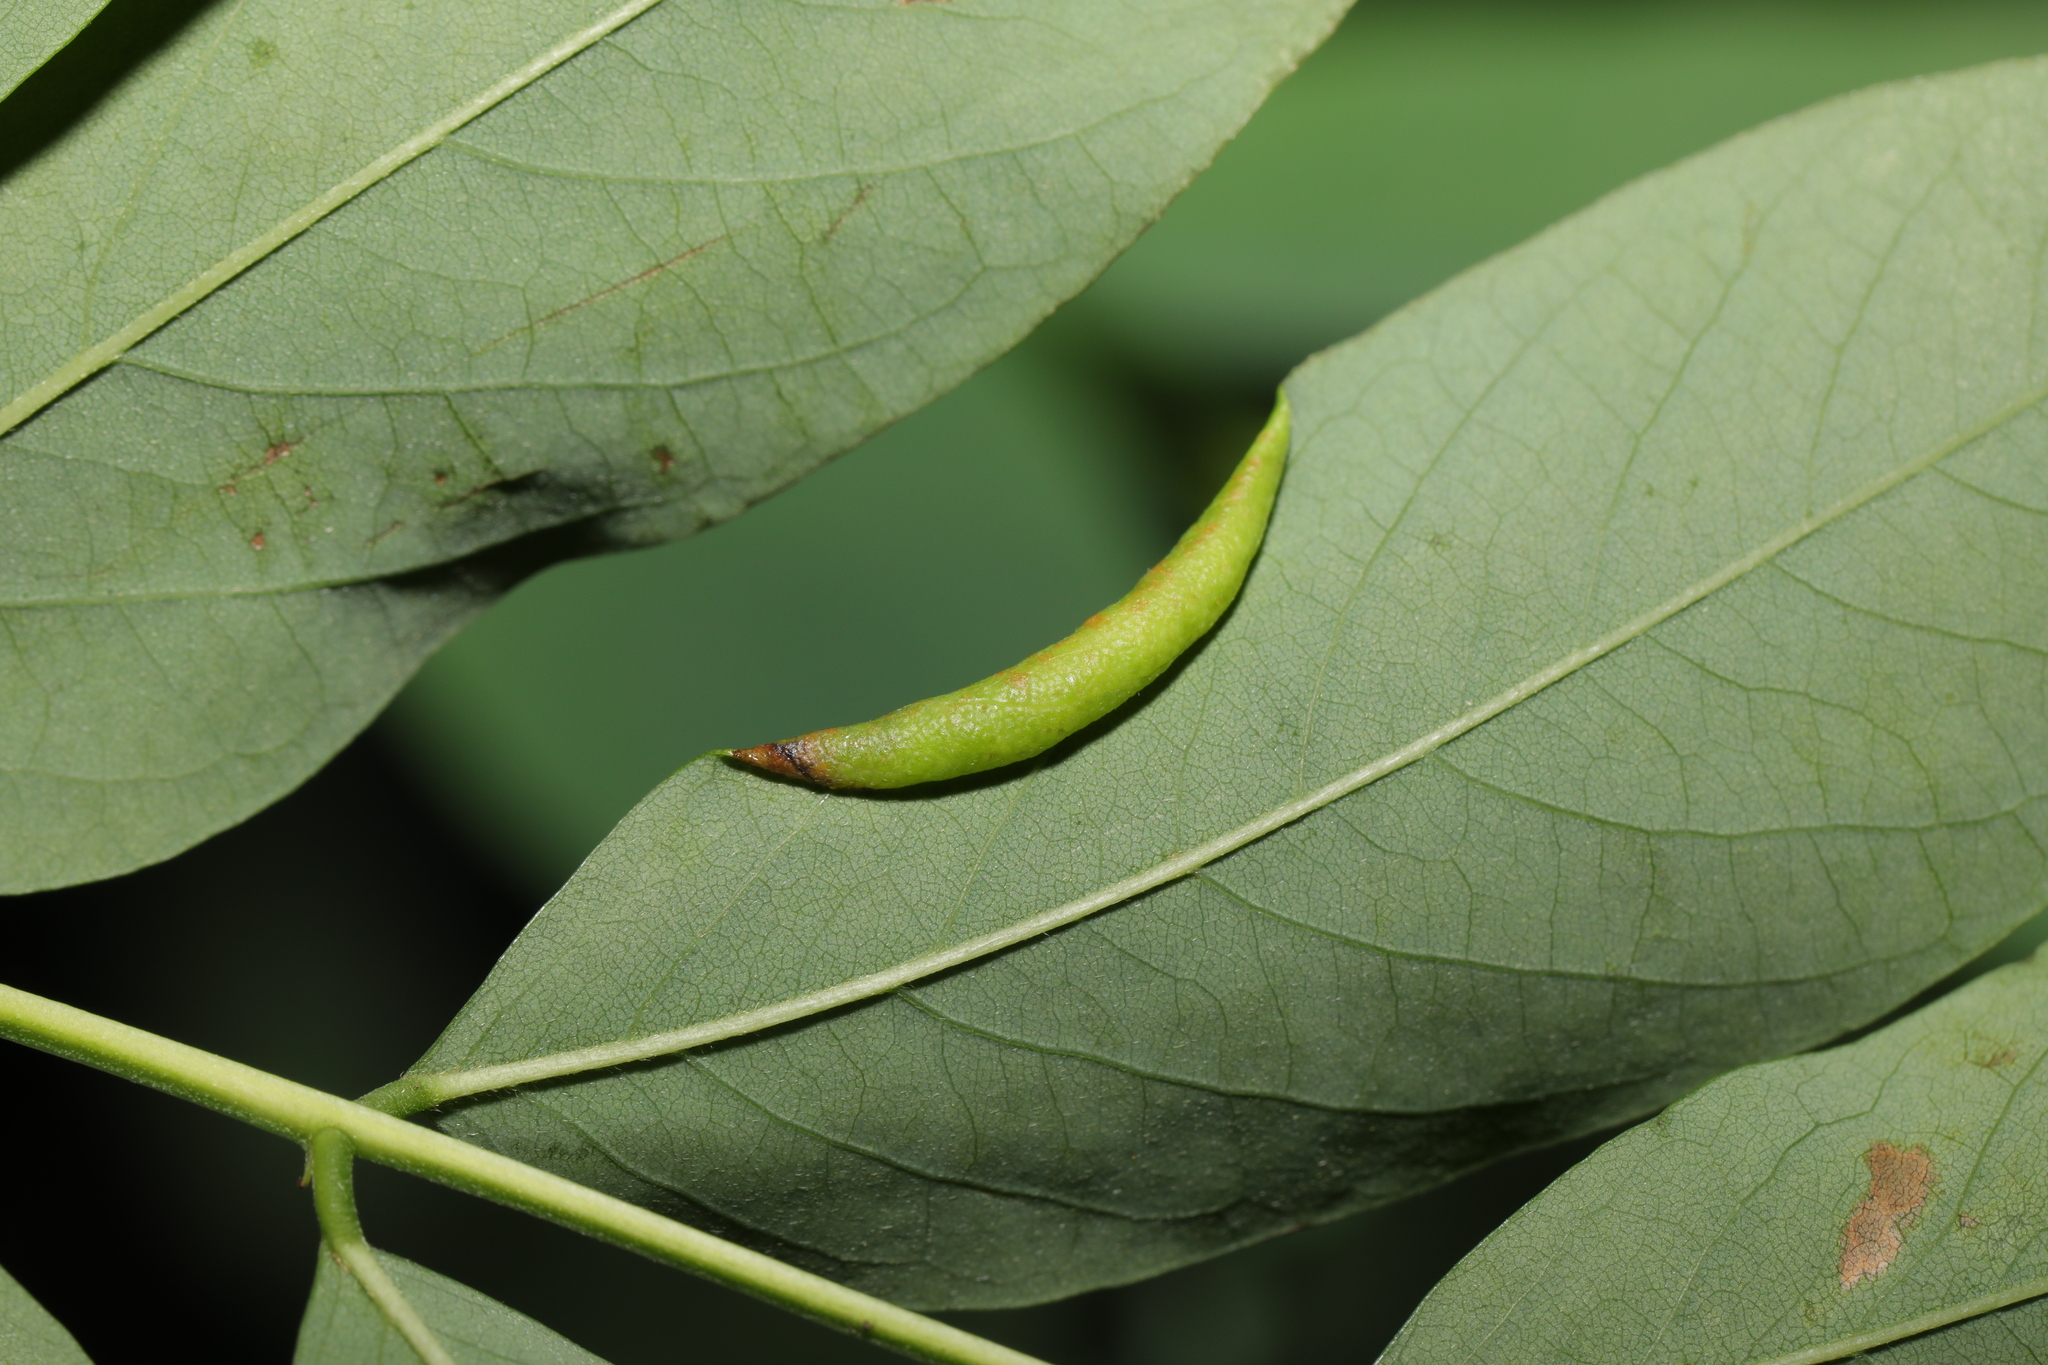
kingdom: Animalia
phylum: Arthropoda
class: Insecta
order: Diptera
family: Cecidomyiidae
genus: Obolodiplosis
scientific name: Obolodiplosis robiniae
